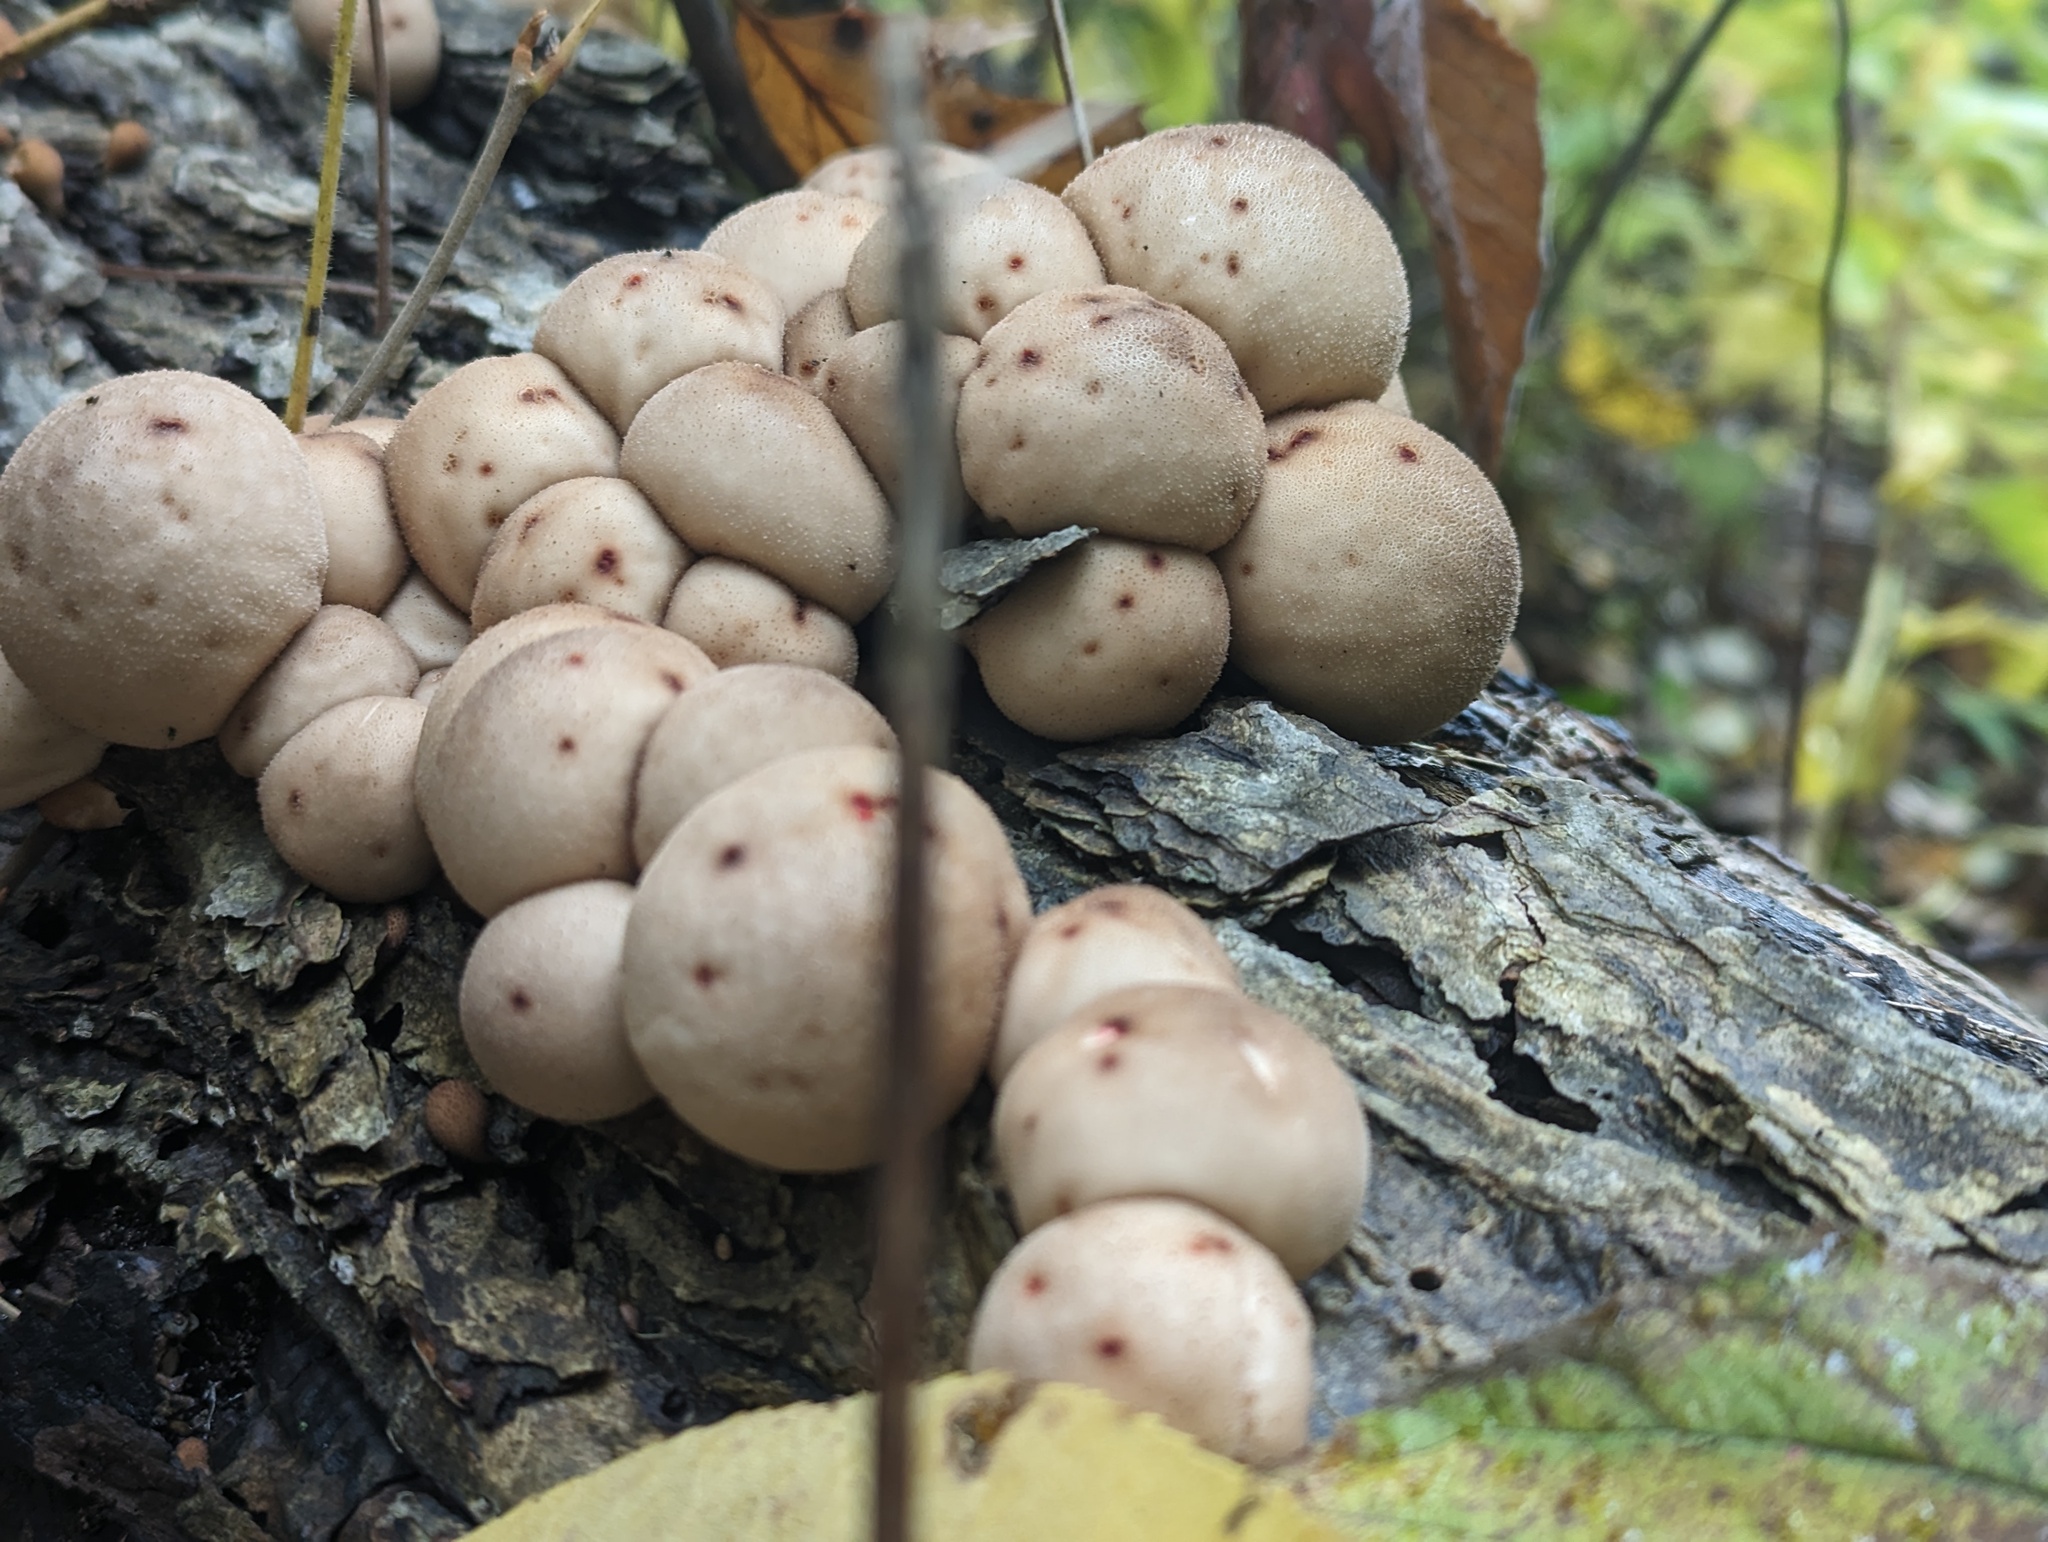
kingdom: Fungi
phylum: Basidiomycota
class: Agaricomycetes
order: Agaricales
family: Lycoperdaceae
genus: Apioperdon
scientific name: Apioperdon pyriforme
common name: Pear-shaped puffball
